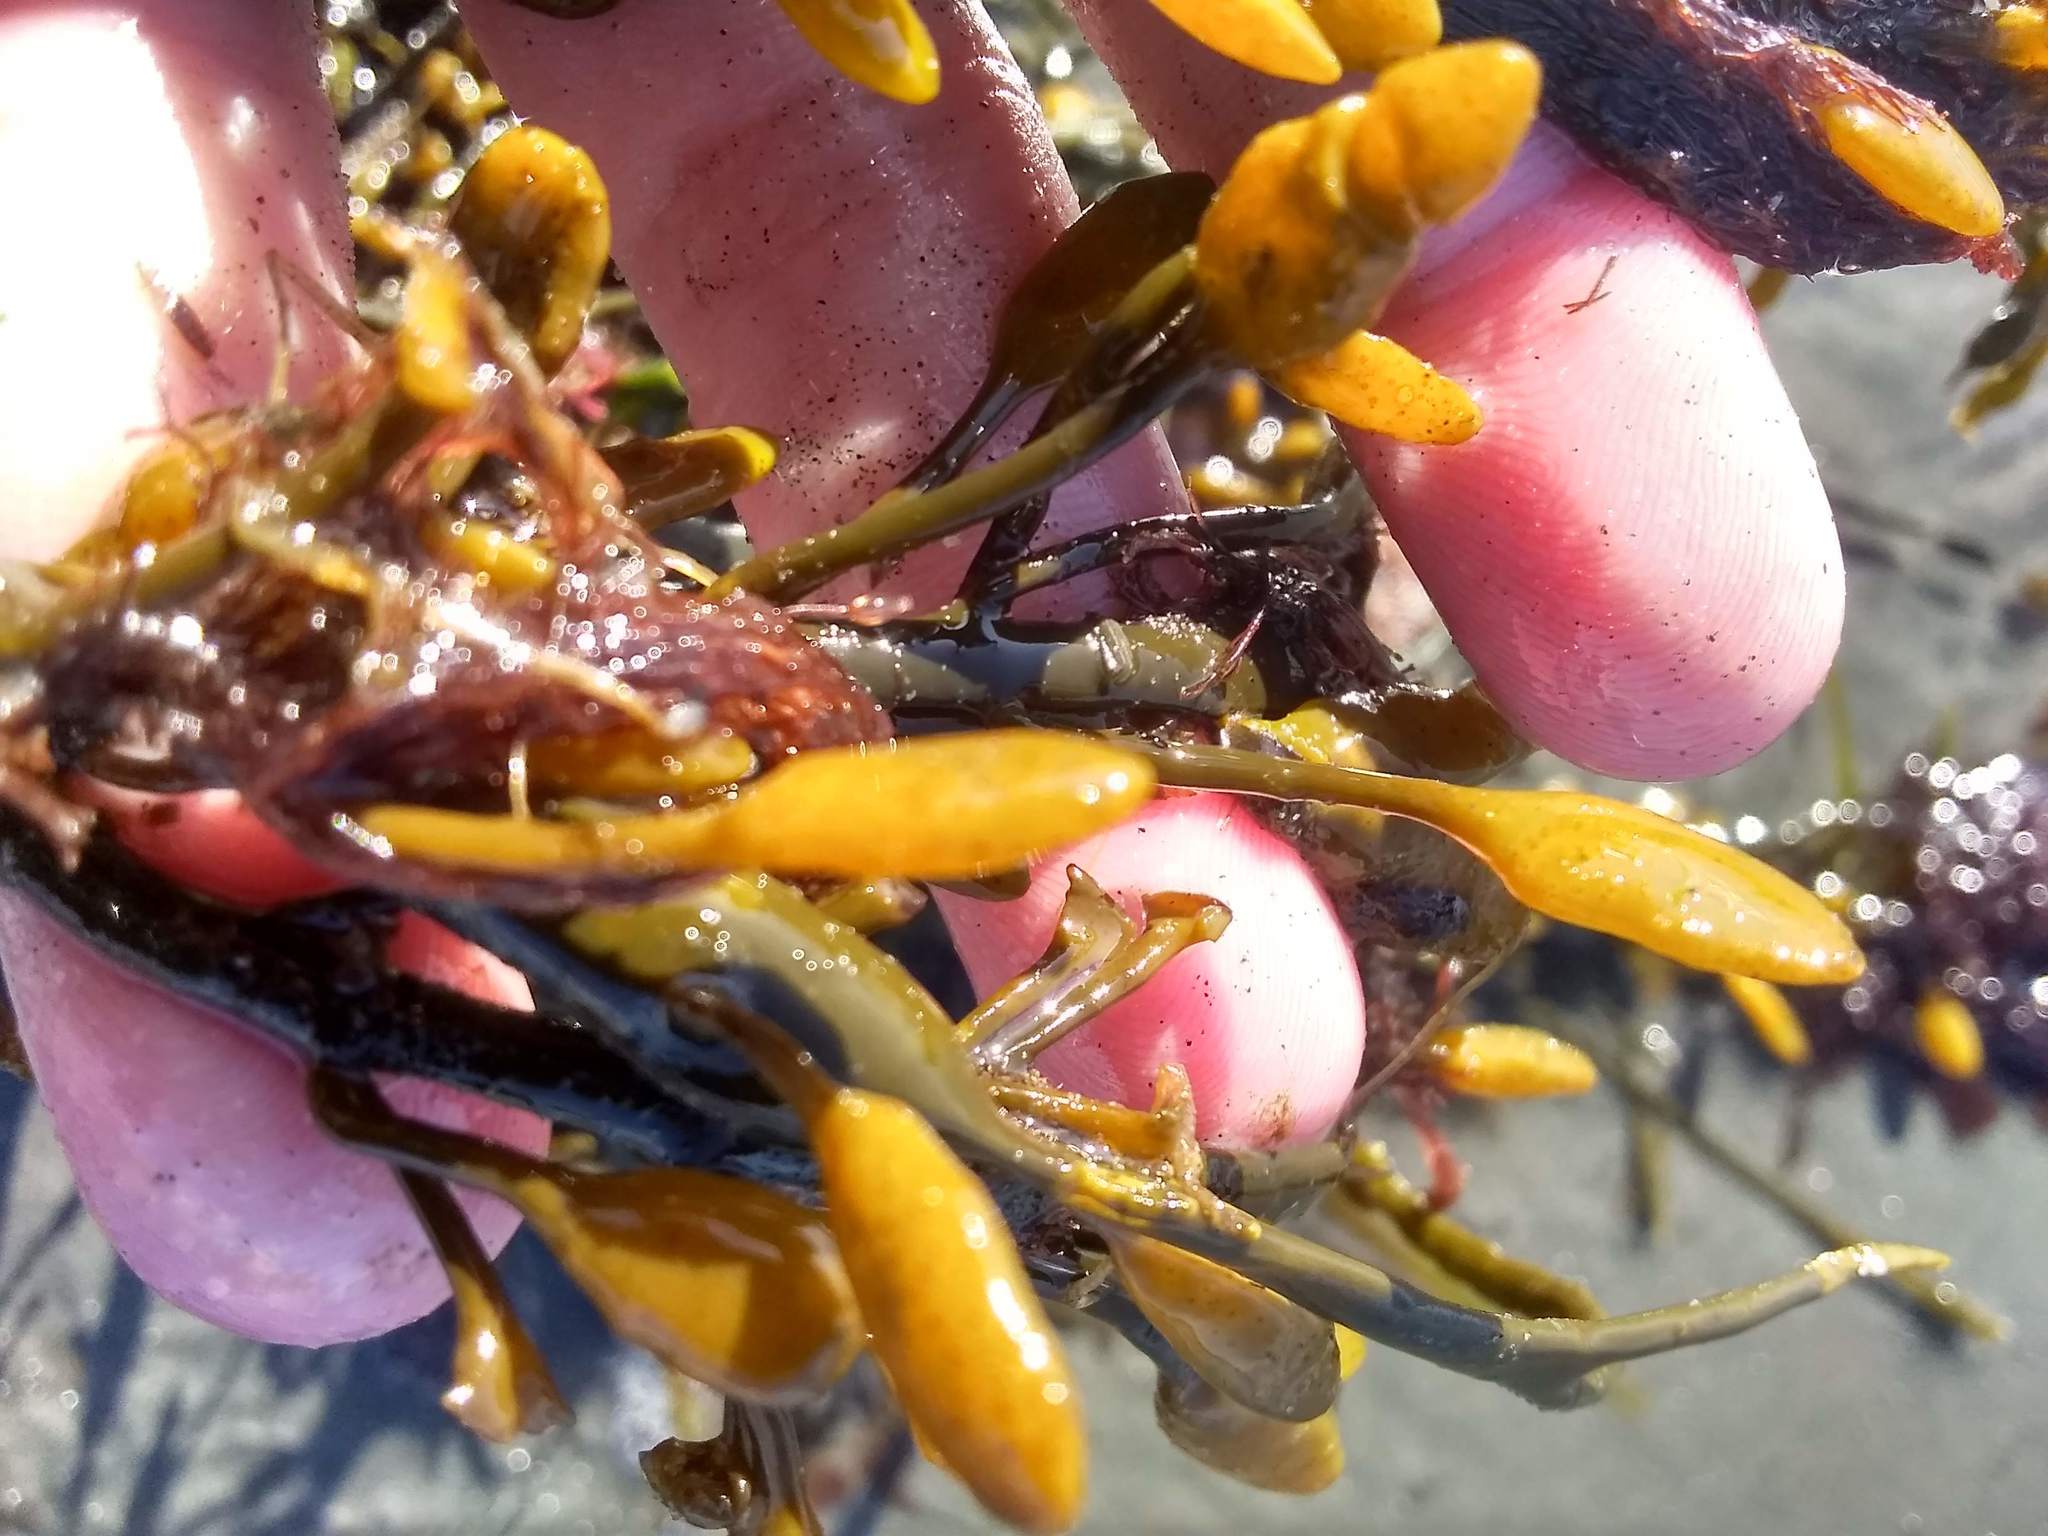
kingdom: Chromista
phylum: Ochrophyta
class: Phaeophyceae
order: Fucales
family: Fucaceae
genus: Ascophyllum
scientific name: Ascophyllum nodosum
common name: Knotted wrack
